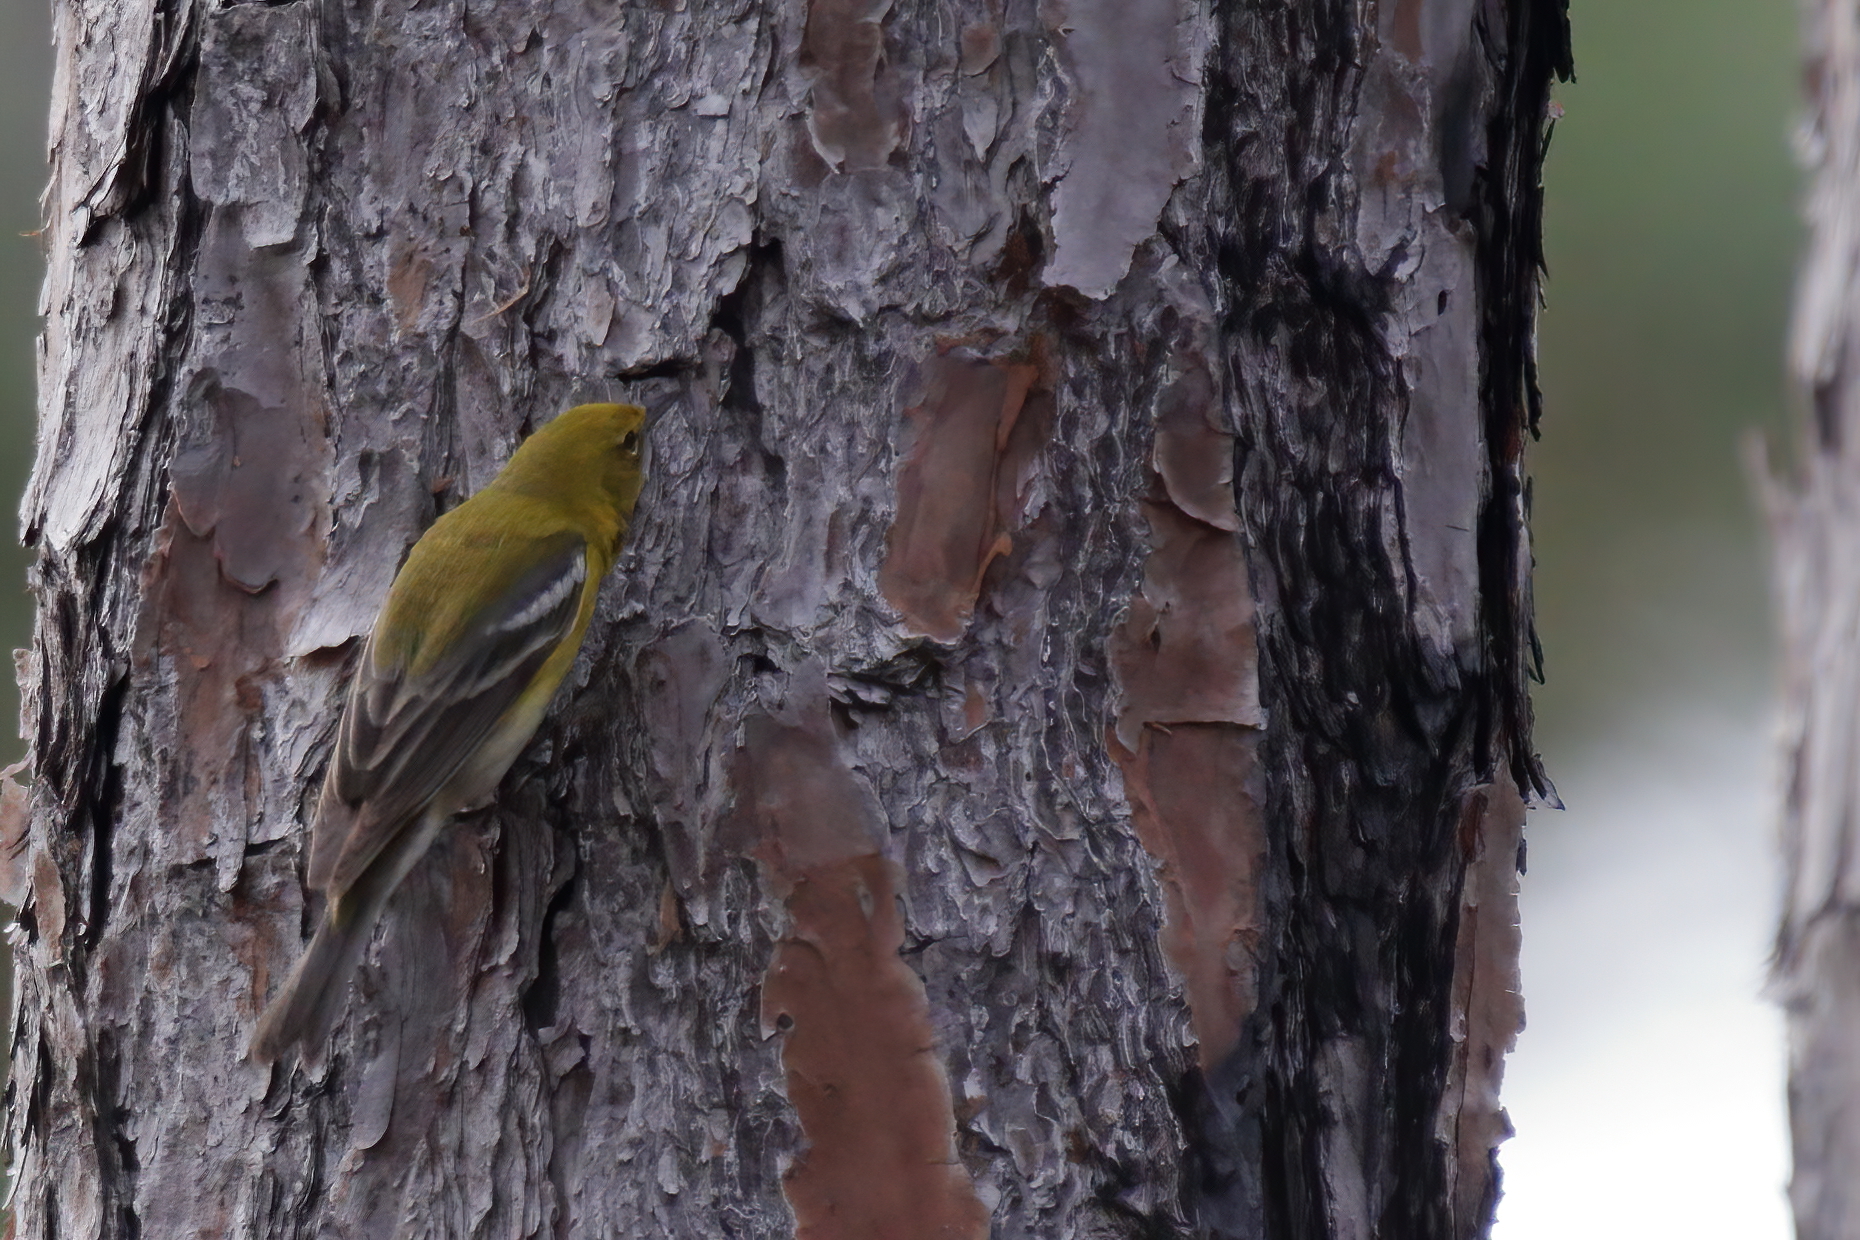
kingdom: Animalia
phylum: Chordata
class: Aves
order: Passeriformes
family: Parulidae
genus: Setophaga
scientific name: Setophaga pinus
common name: Pine warbler
